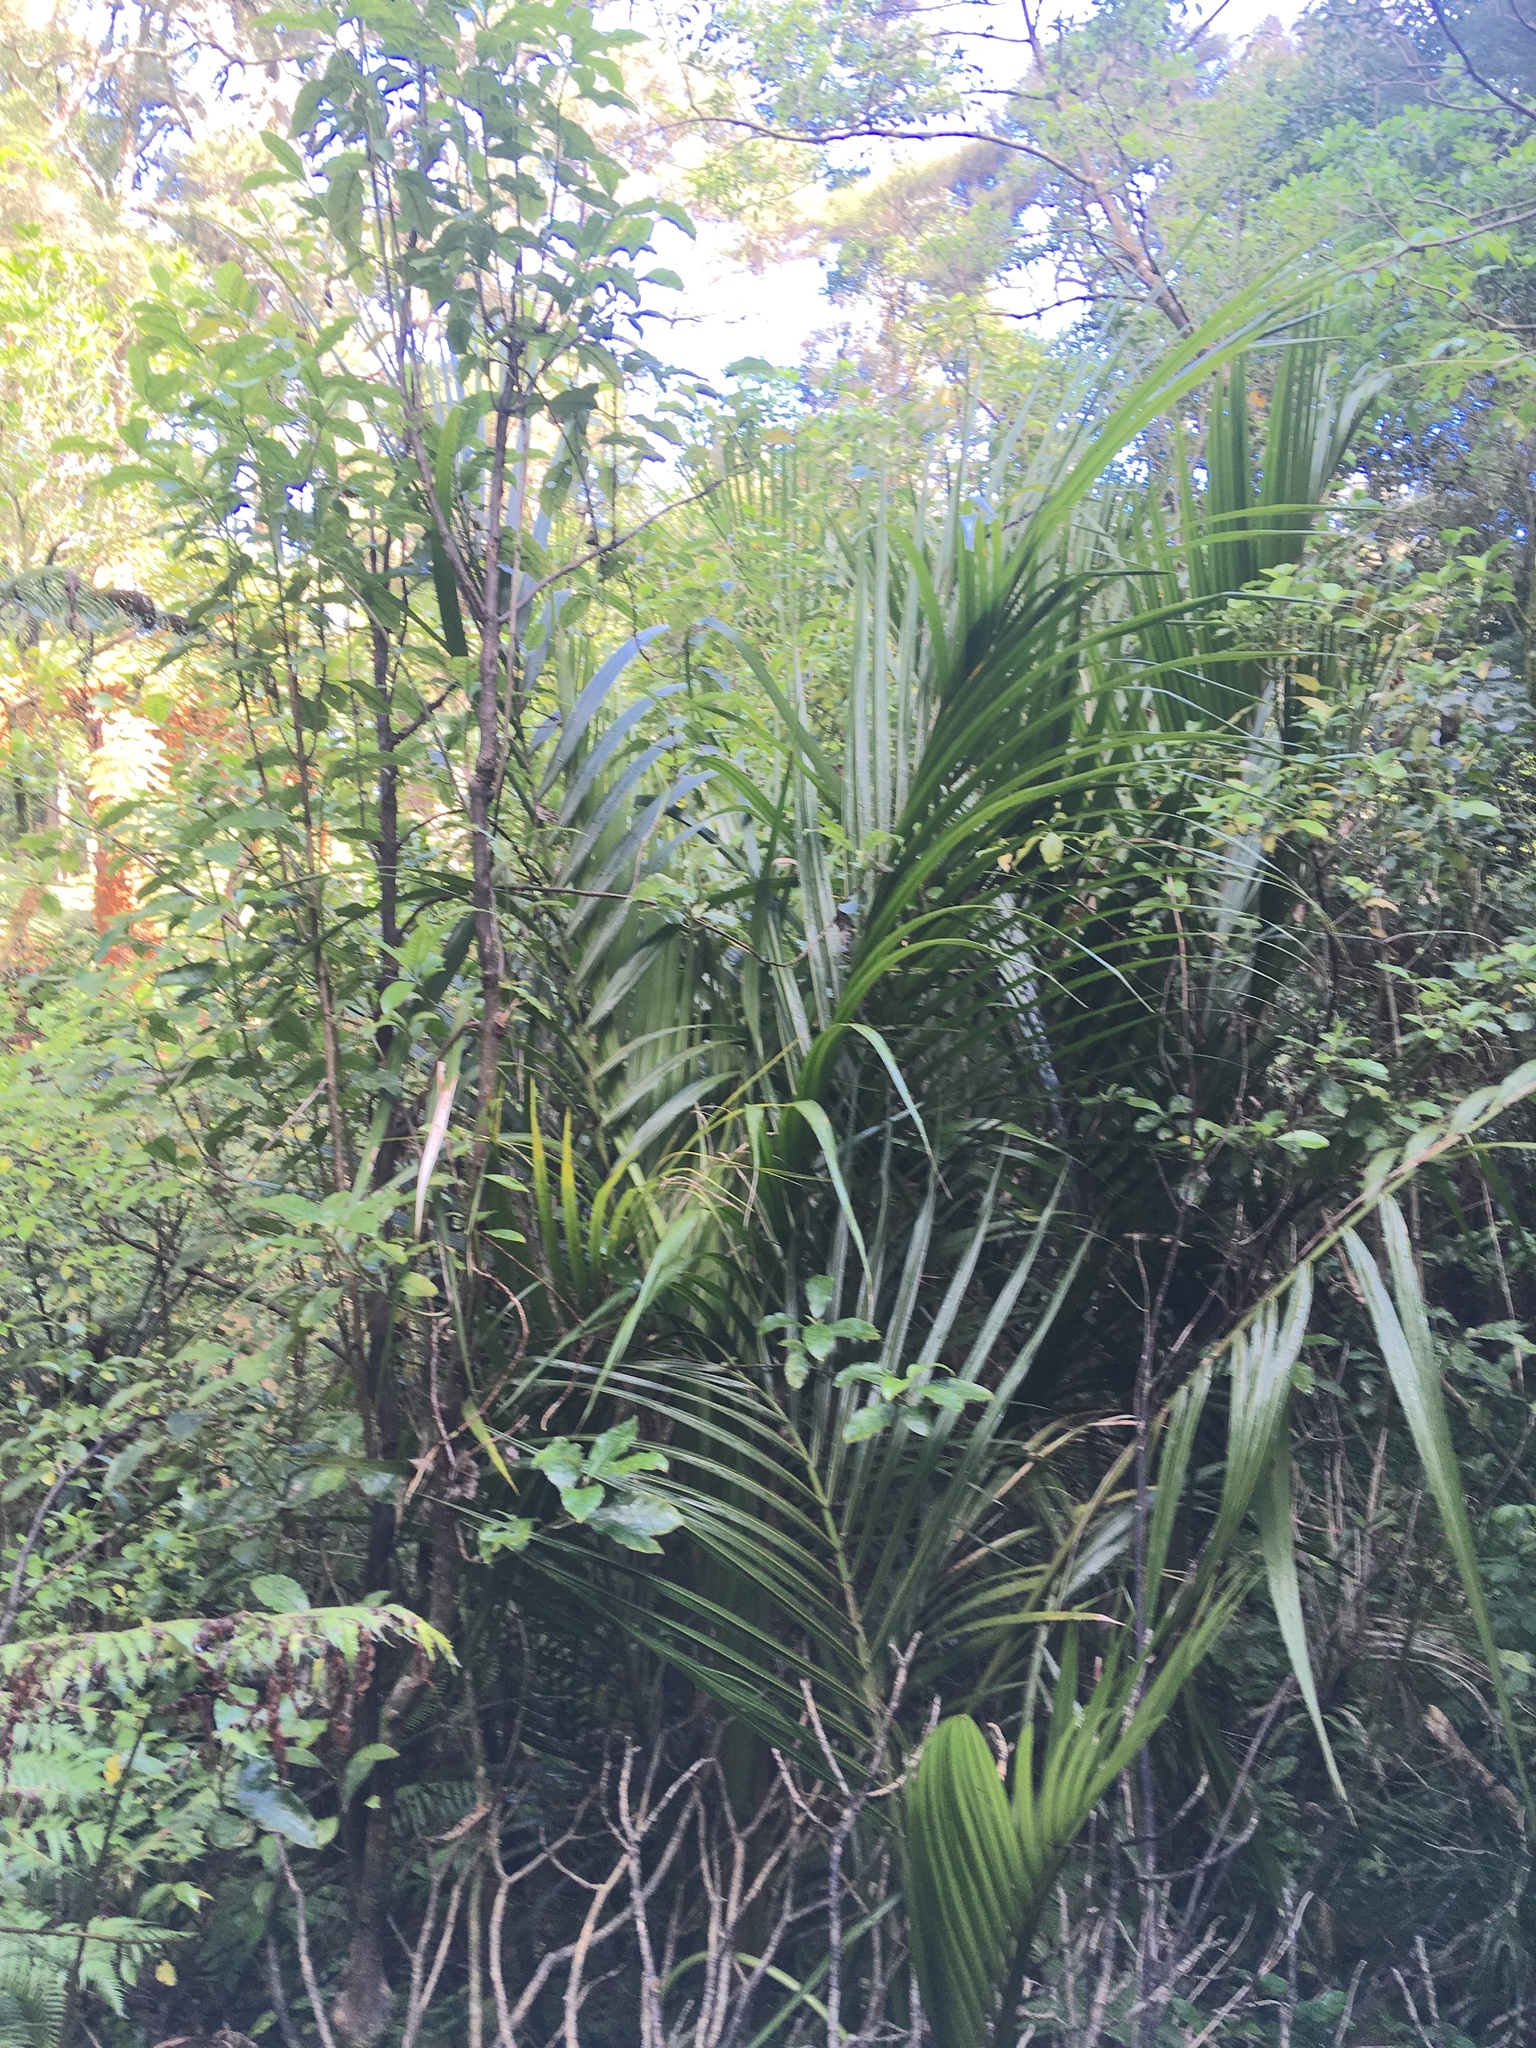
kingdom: Plantae
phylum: Tracheophyta
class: Liliopsida
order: Arecales
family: Arecaceae
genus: Rhopalostylis
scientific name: Rhopalostylis sapida
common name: Feather-duster palm
